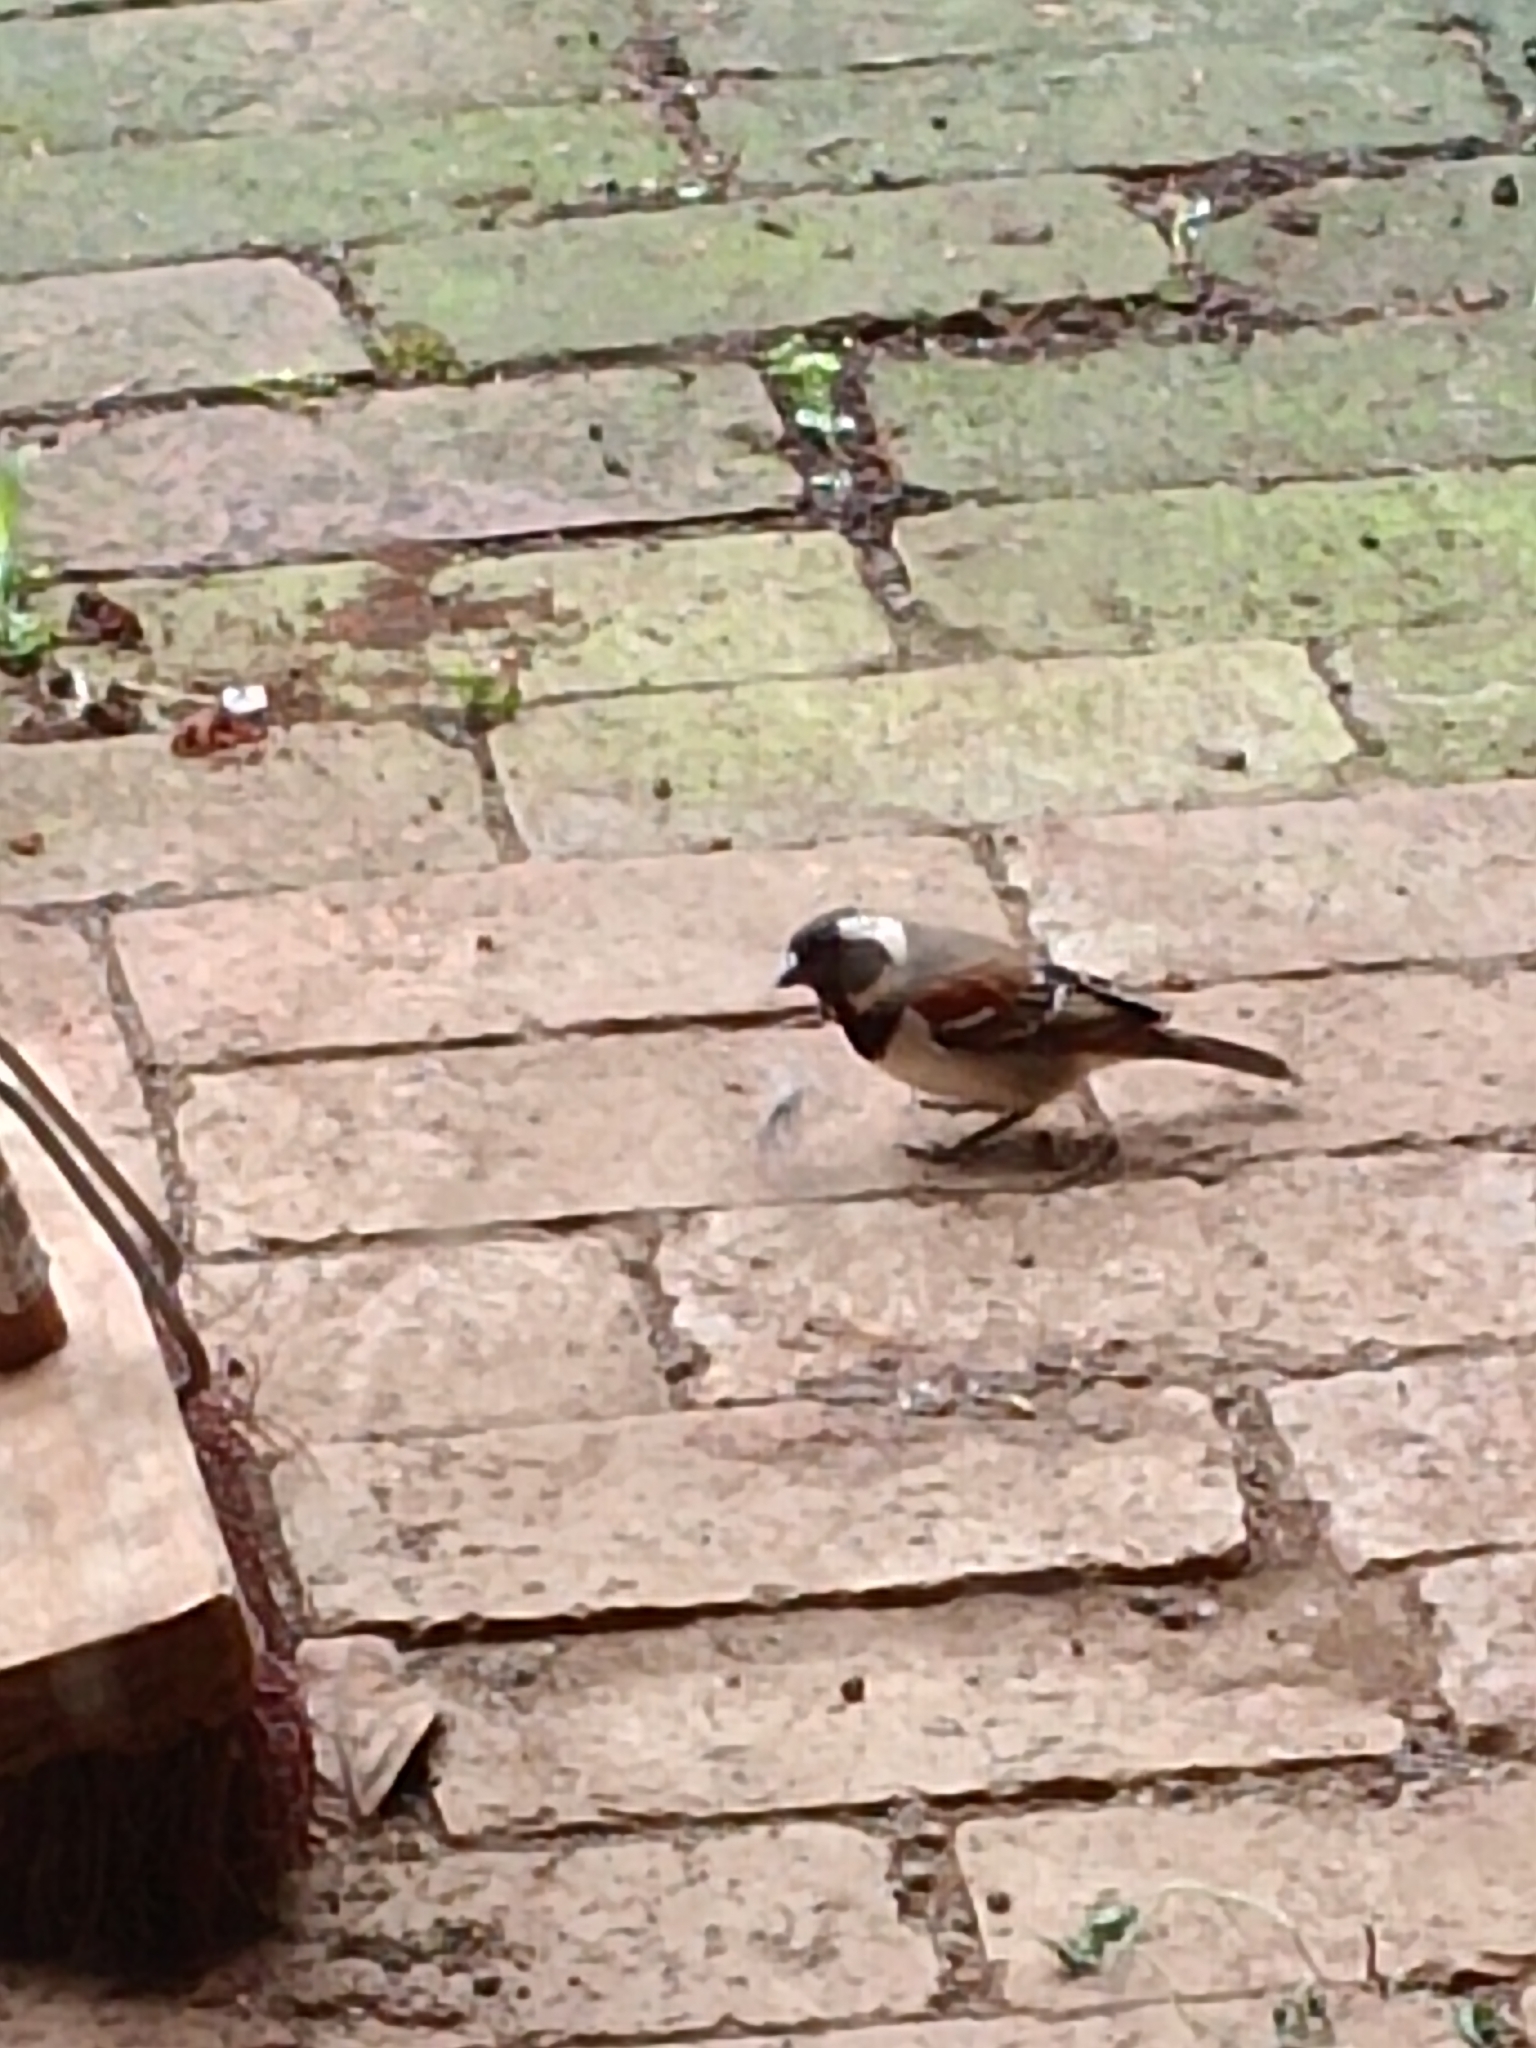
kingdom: Animalia
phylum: Chordata
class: Aves
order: Passeriformes
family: Passeridae
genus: Passer
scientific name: Passer melanurus
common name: Cape sparrow
